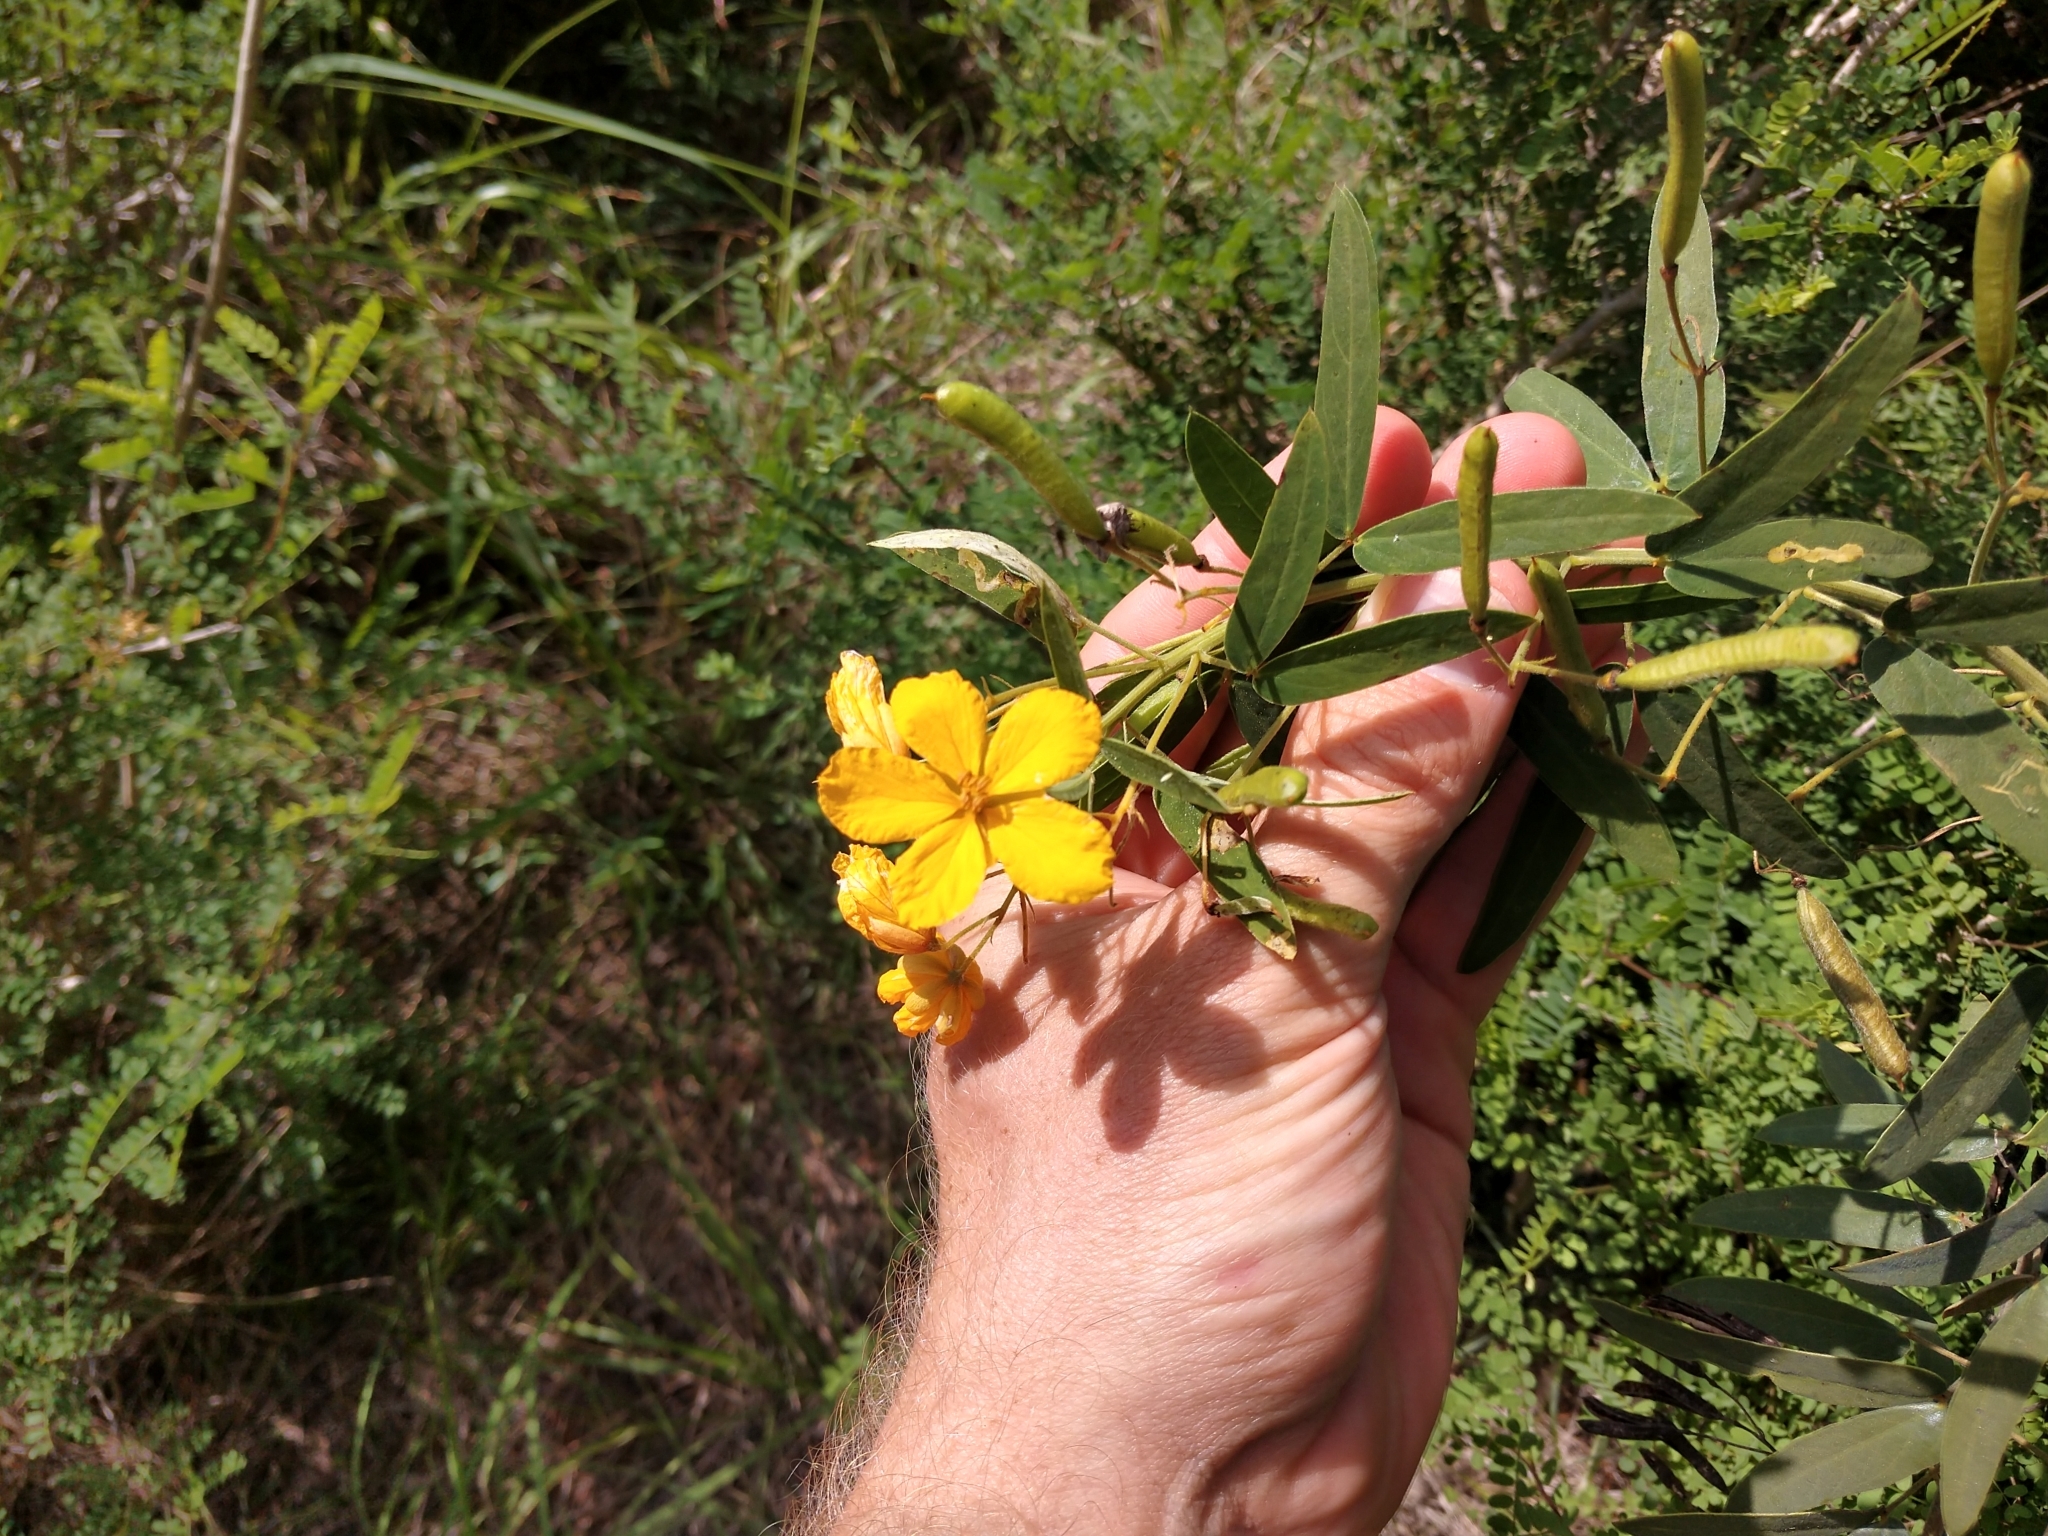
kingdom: Plantae
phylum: Tracheophyta
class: Magnoliopsida
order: Fabales
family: Fabaceae
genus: Senna
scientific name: Senna roemeriana
